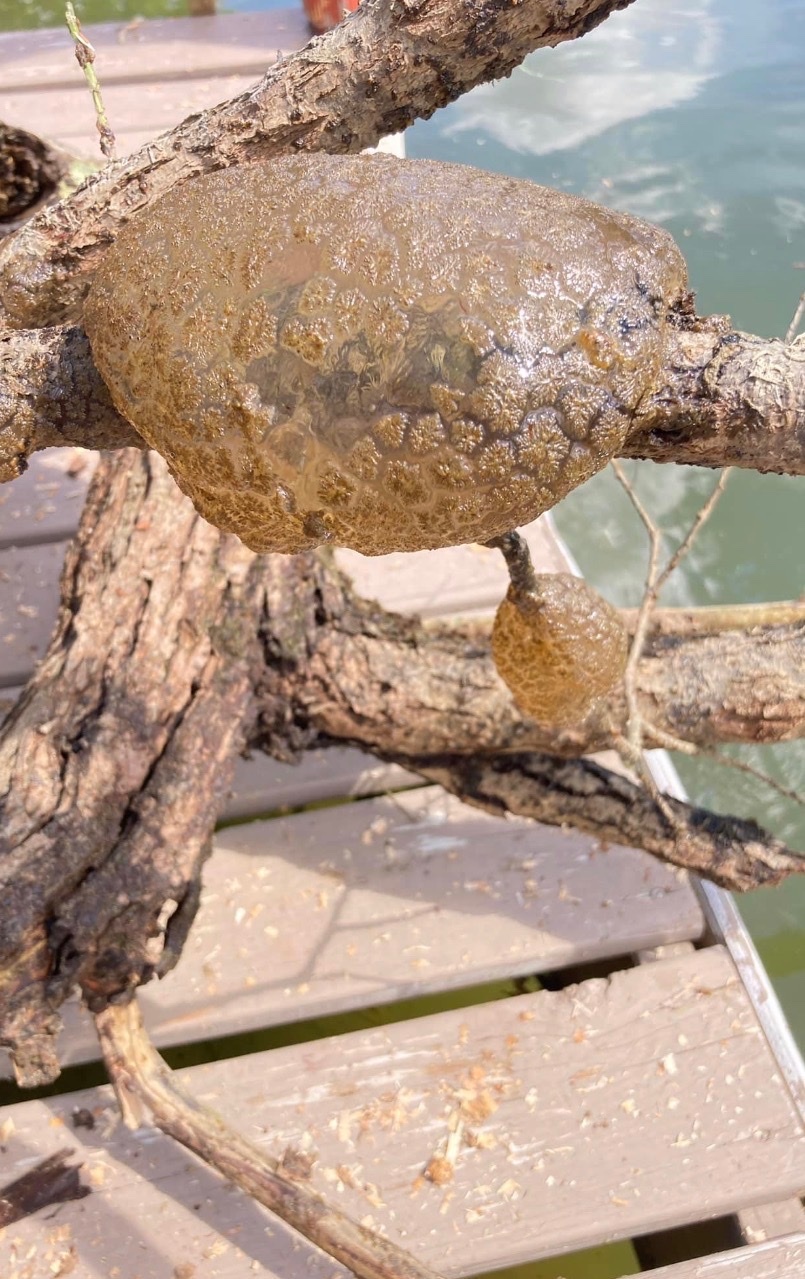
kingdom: Animalia
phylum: Bryozoa
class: Phylactolaemata
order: Plumatellida
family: Pectinatellidae
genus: Pectinatella
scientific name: Pectinatella magnifica
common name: Magnificent bryozoan
